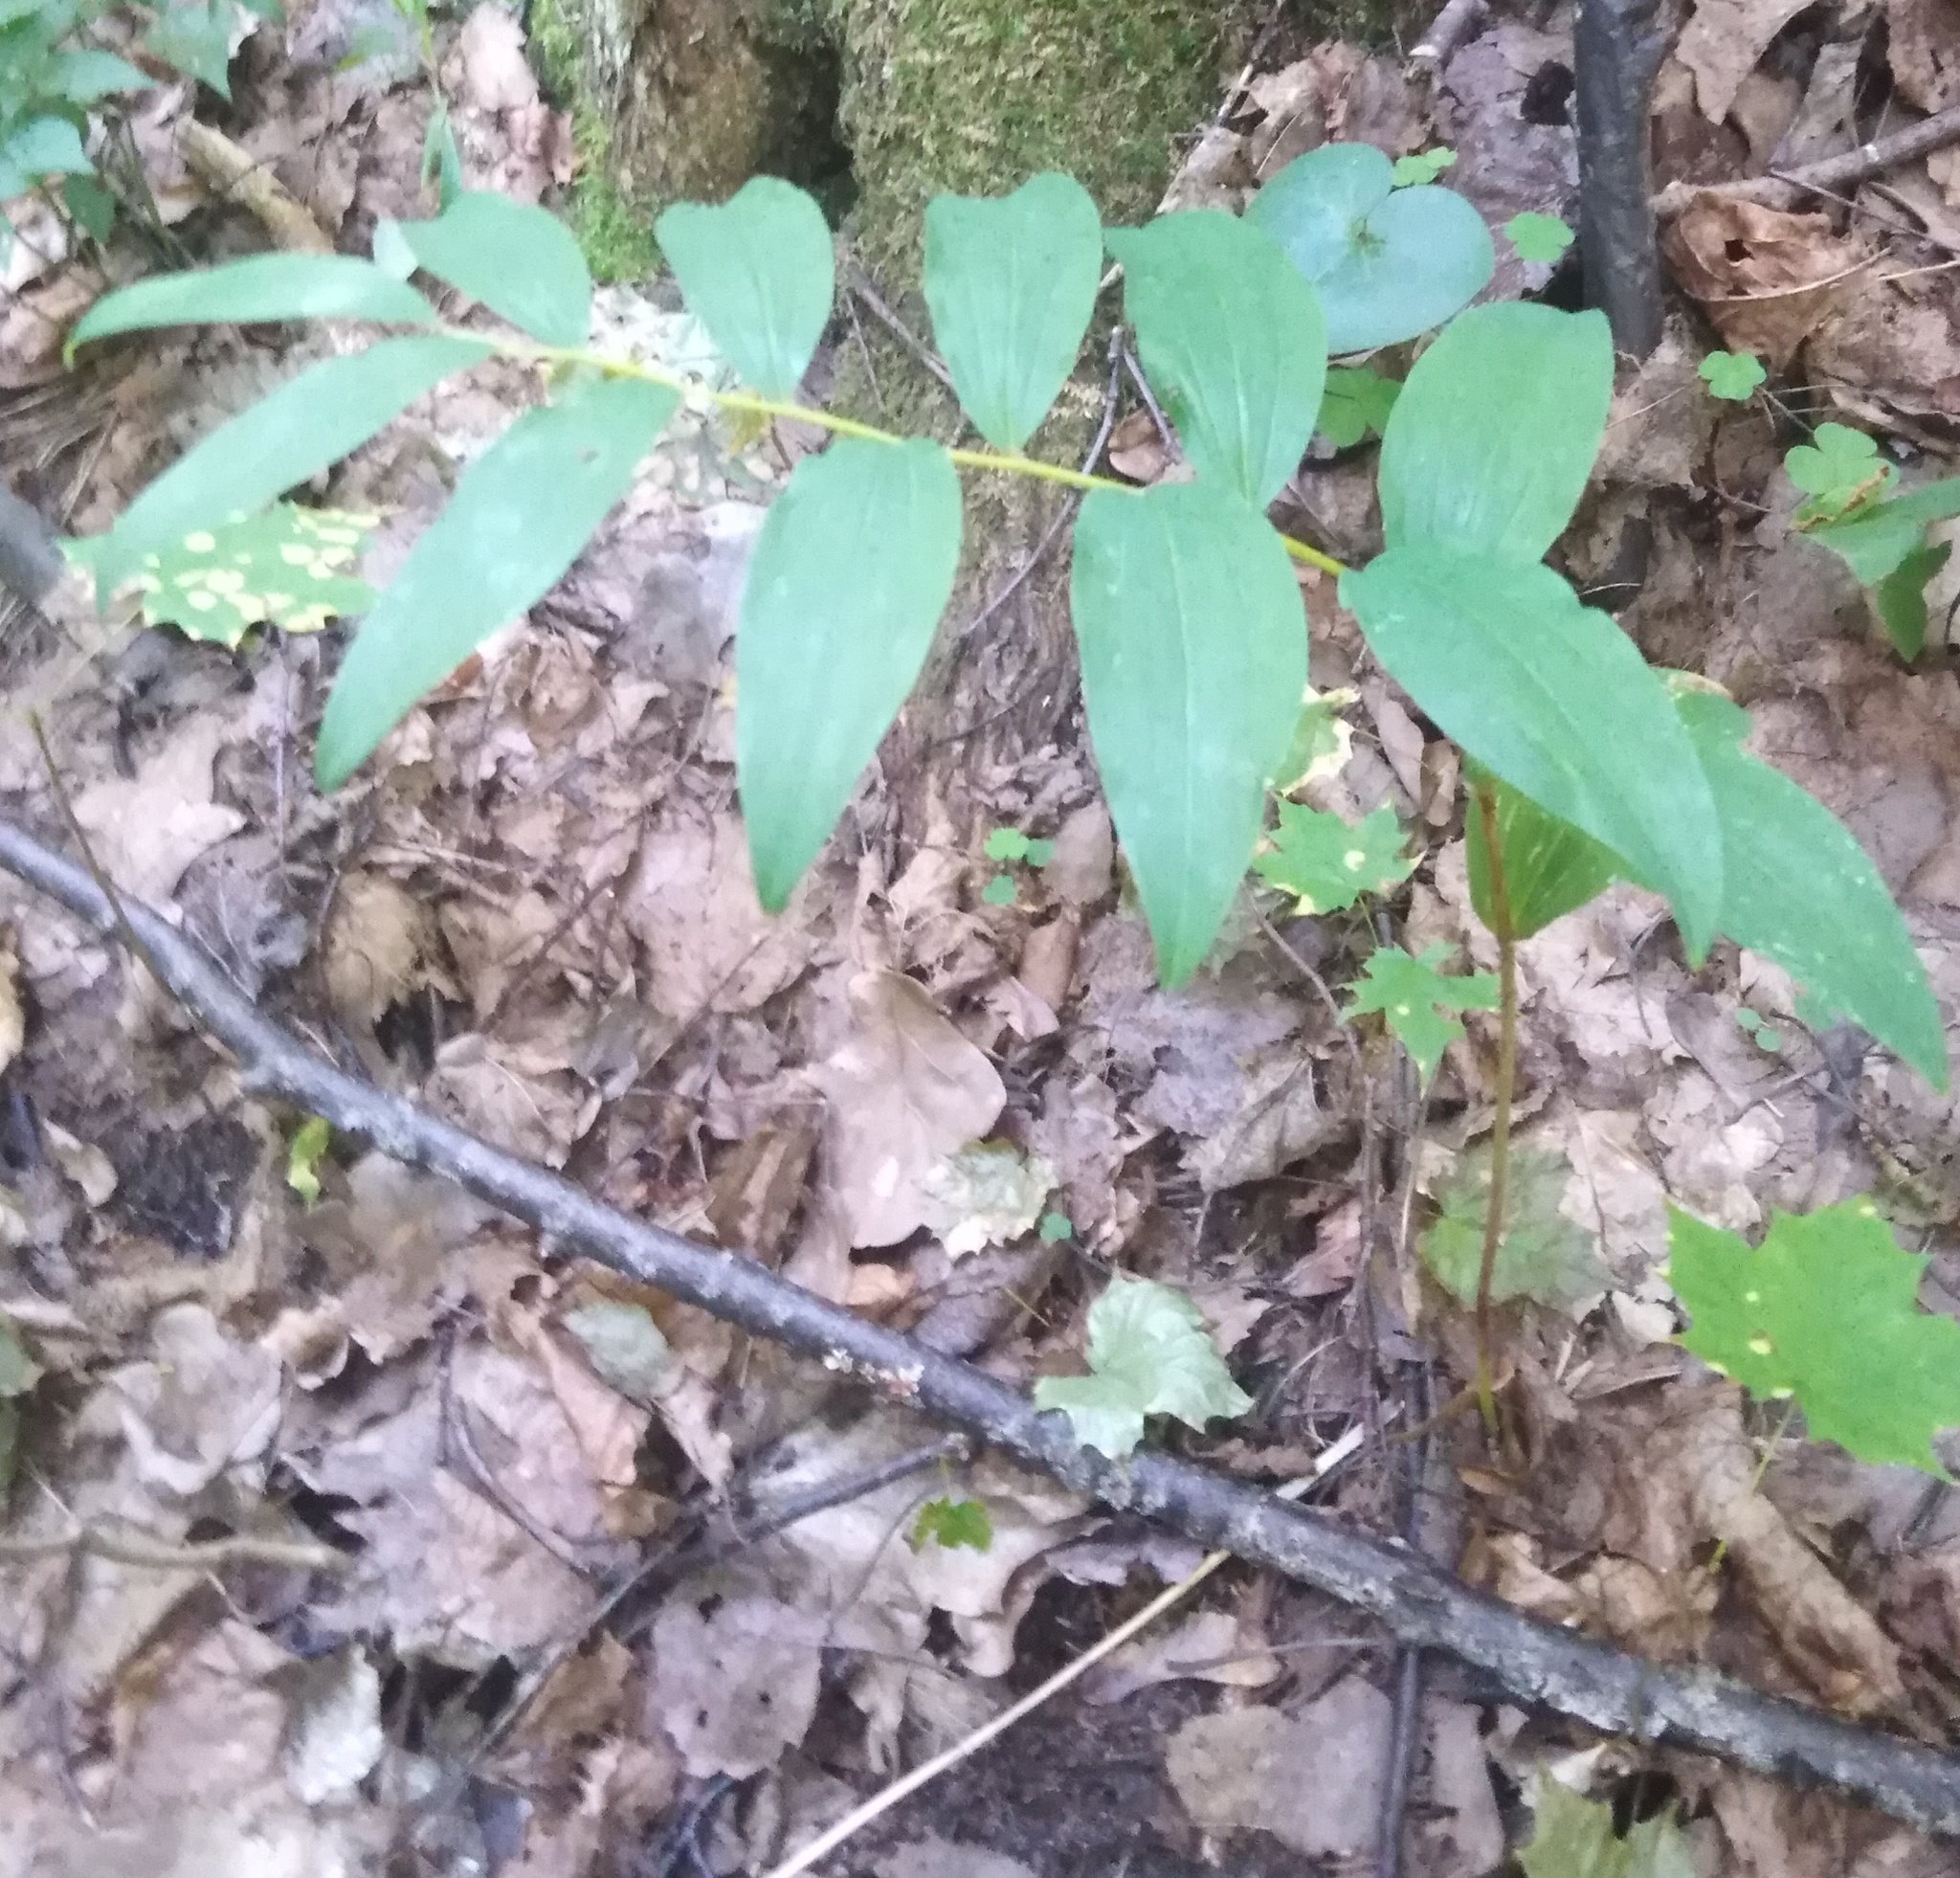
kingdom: Plantae
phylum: Tracheophyta
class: Liliopsida
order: Asparagales
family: Asparagaceae
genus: Polygonatum
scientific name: Polygonatum multiflorum
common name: Solomon's-seal
